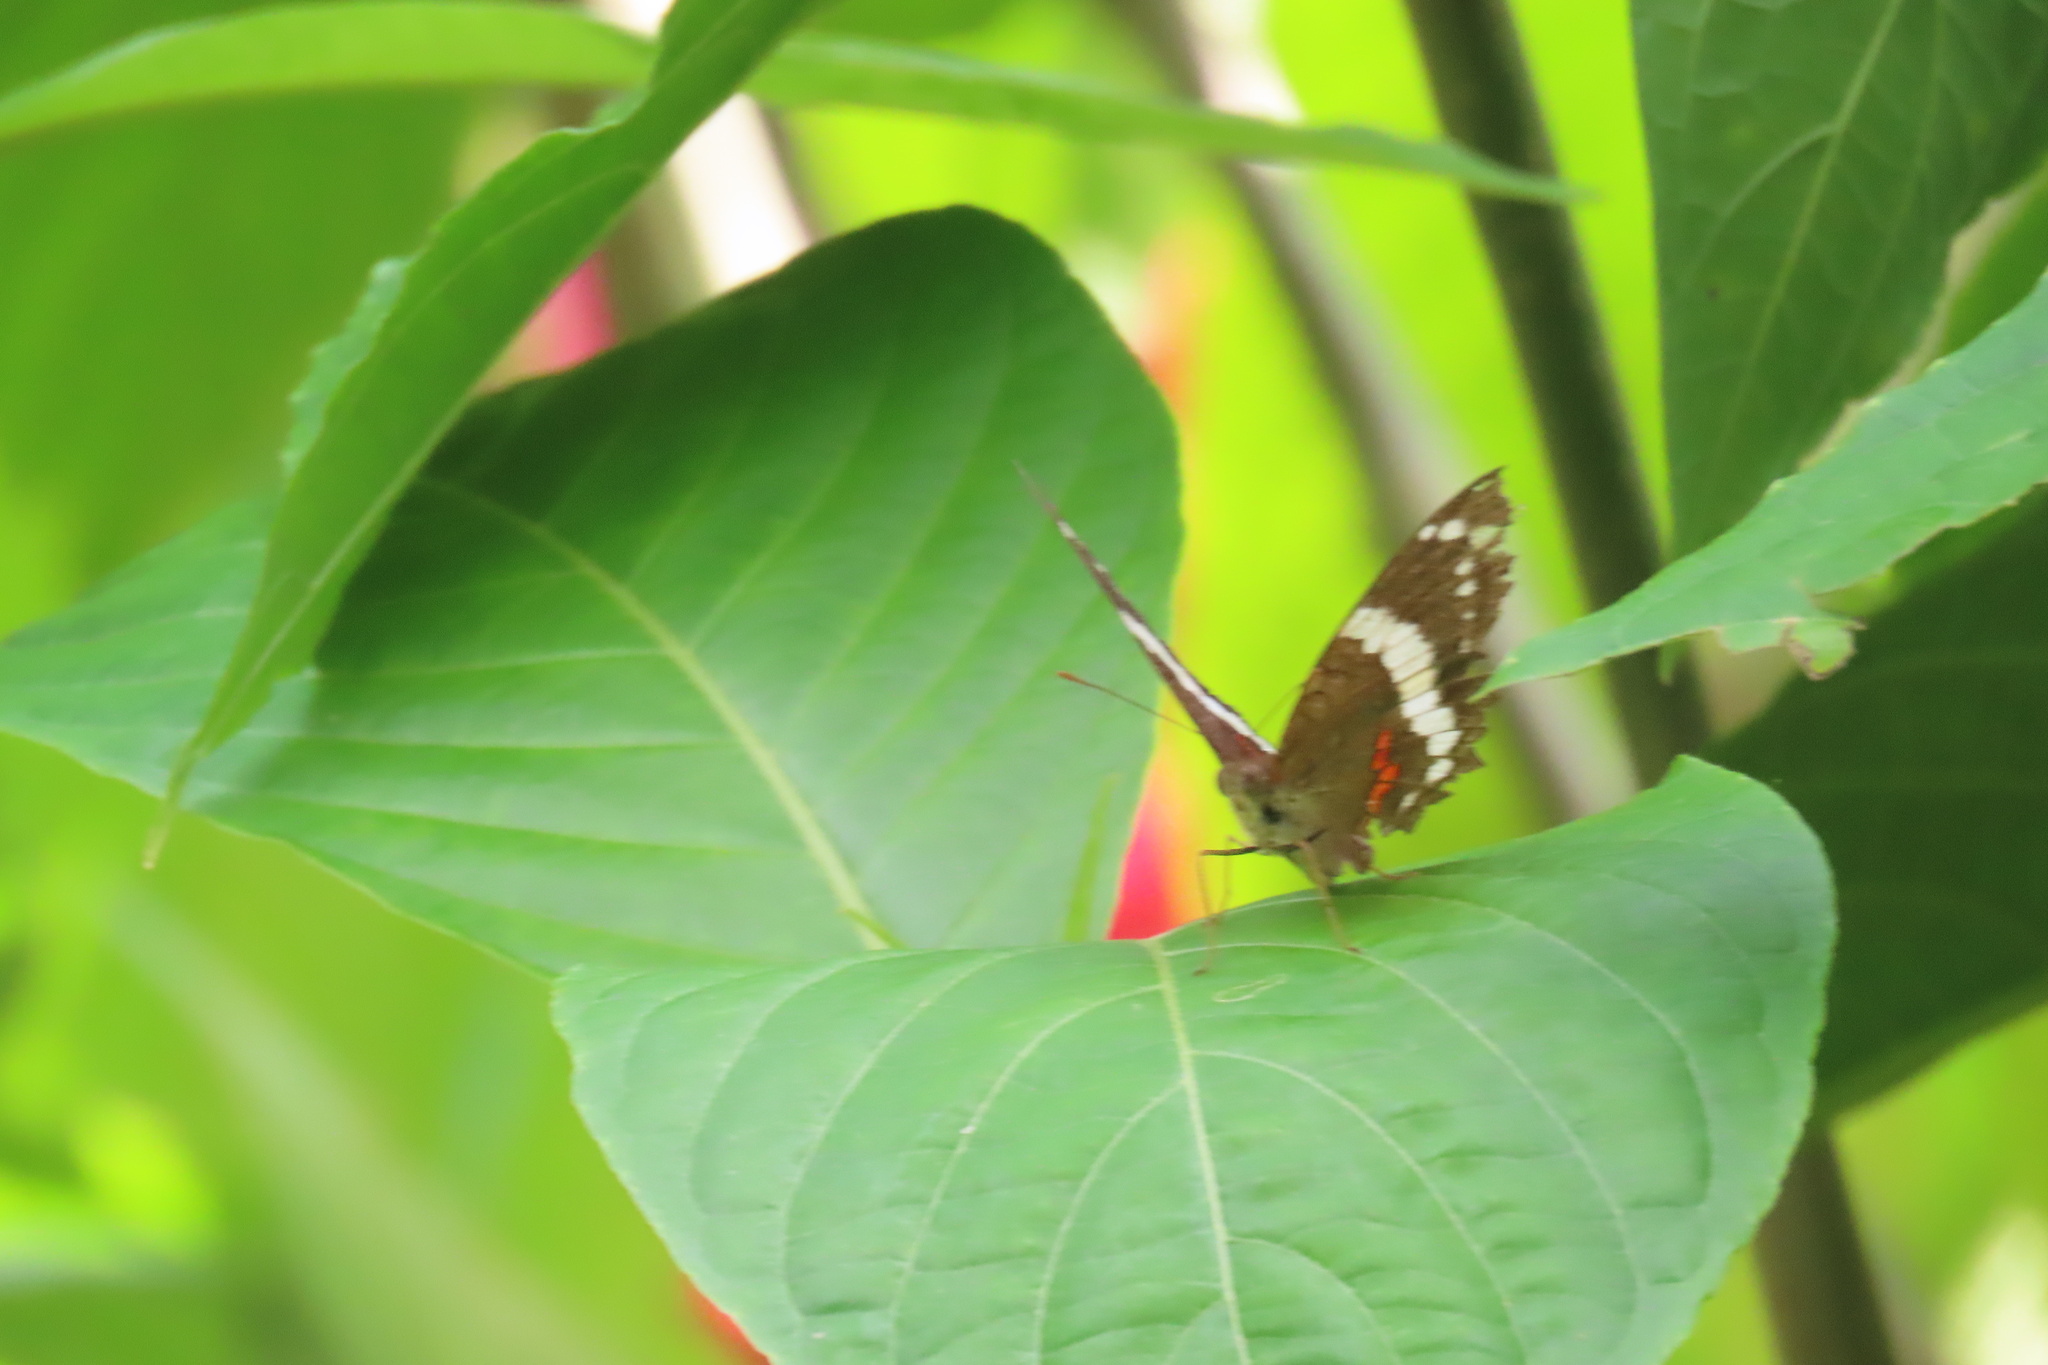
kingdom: Animalia
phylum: Arthropoda
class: Insecta
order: Lepidoptera
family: Nymphalidae
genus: Anartia
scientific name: Anartia fatima
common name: Banded peacock
